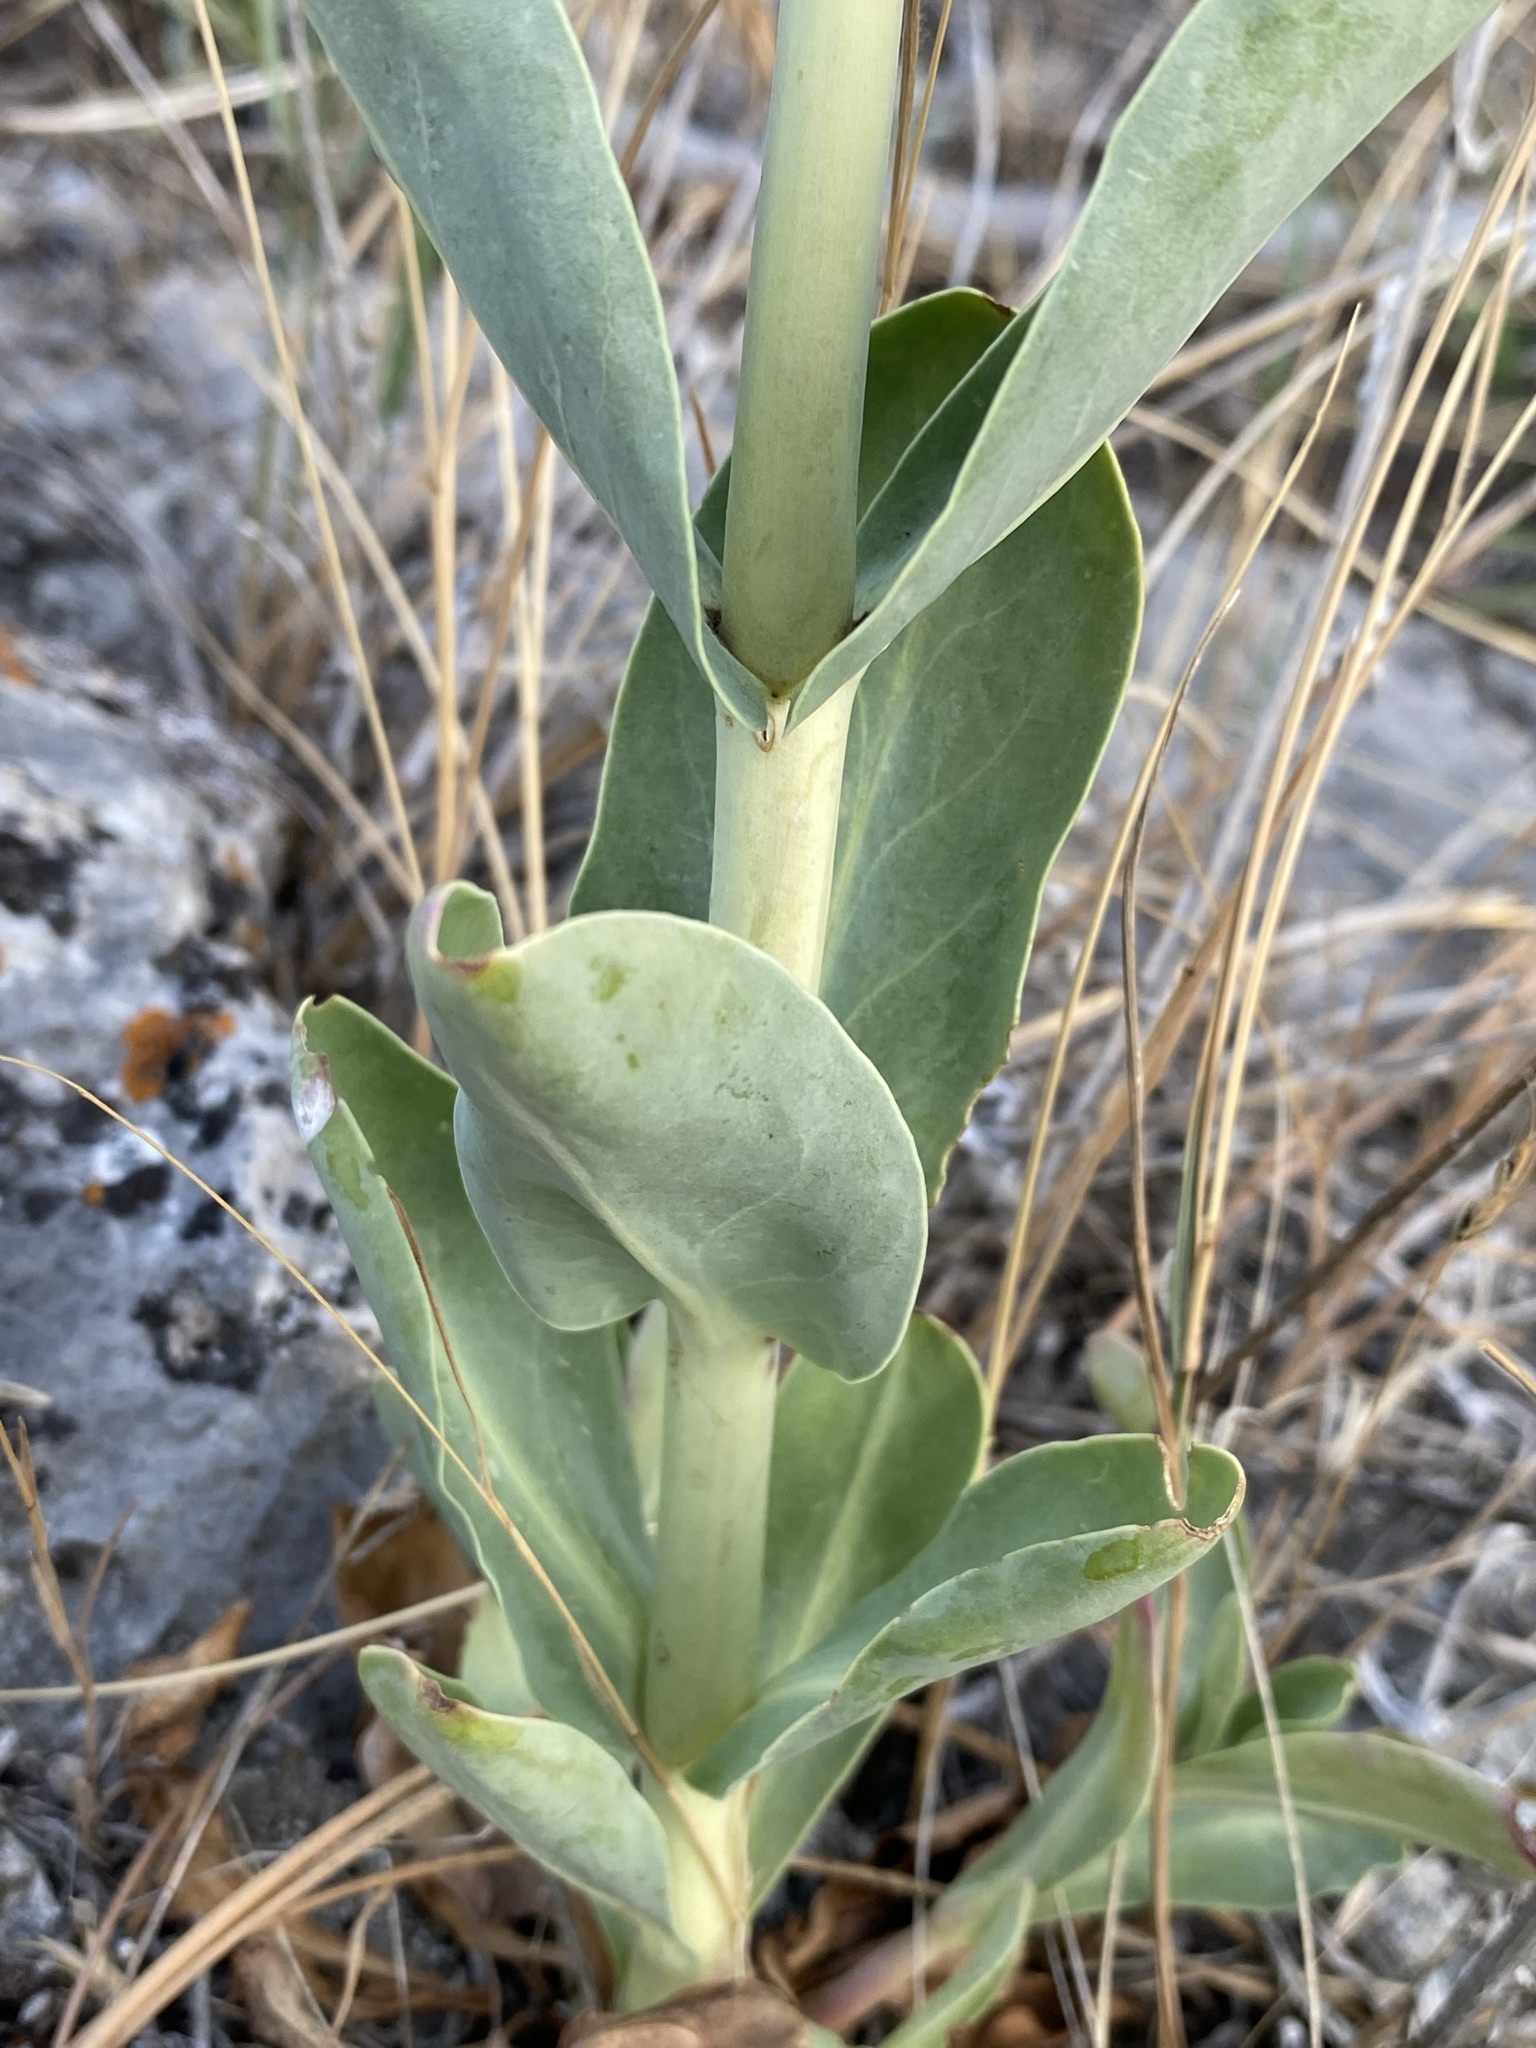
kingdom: Plantae
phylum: Tracheophyta
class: Magnoliopsida
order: Lamiales
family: Plantaginaceae
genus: Penstemon
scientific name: Penstemon
